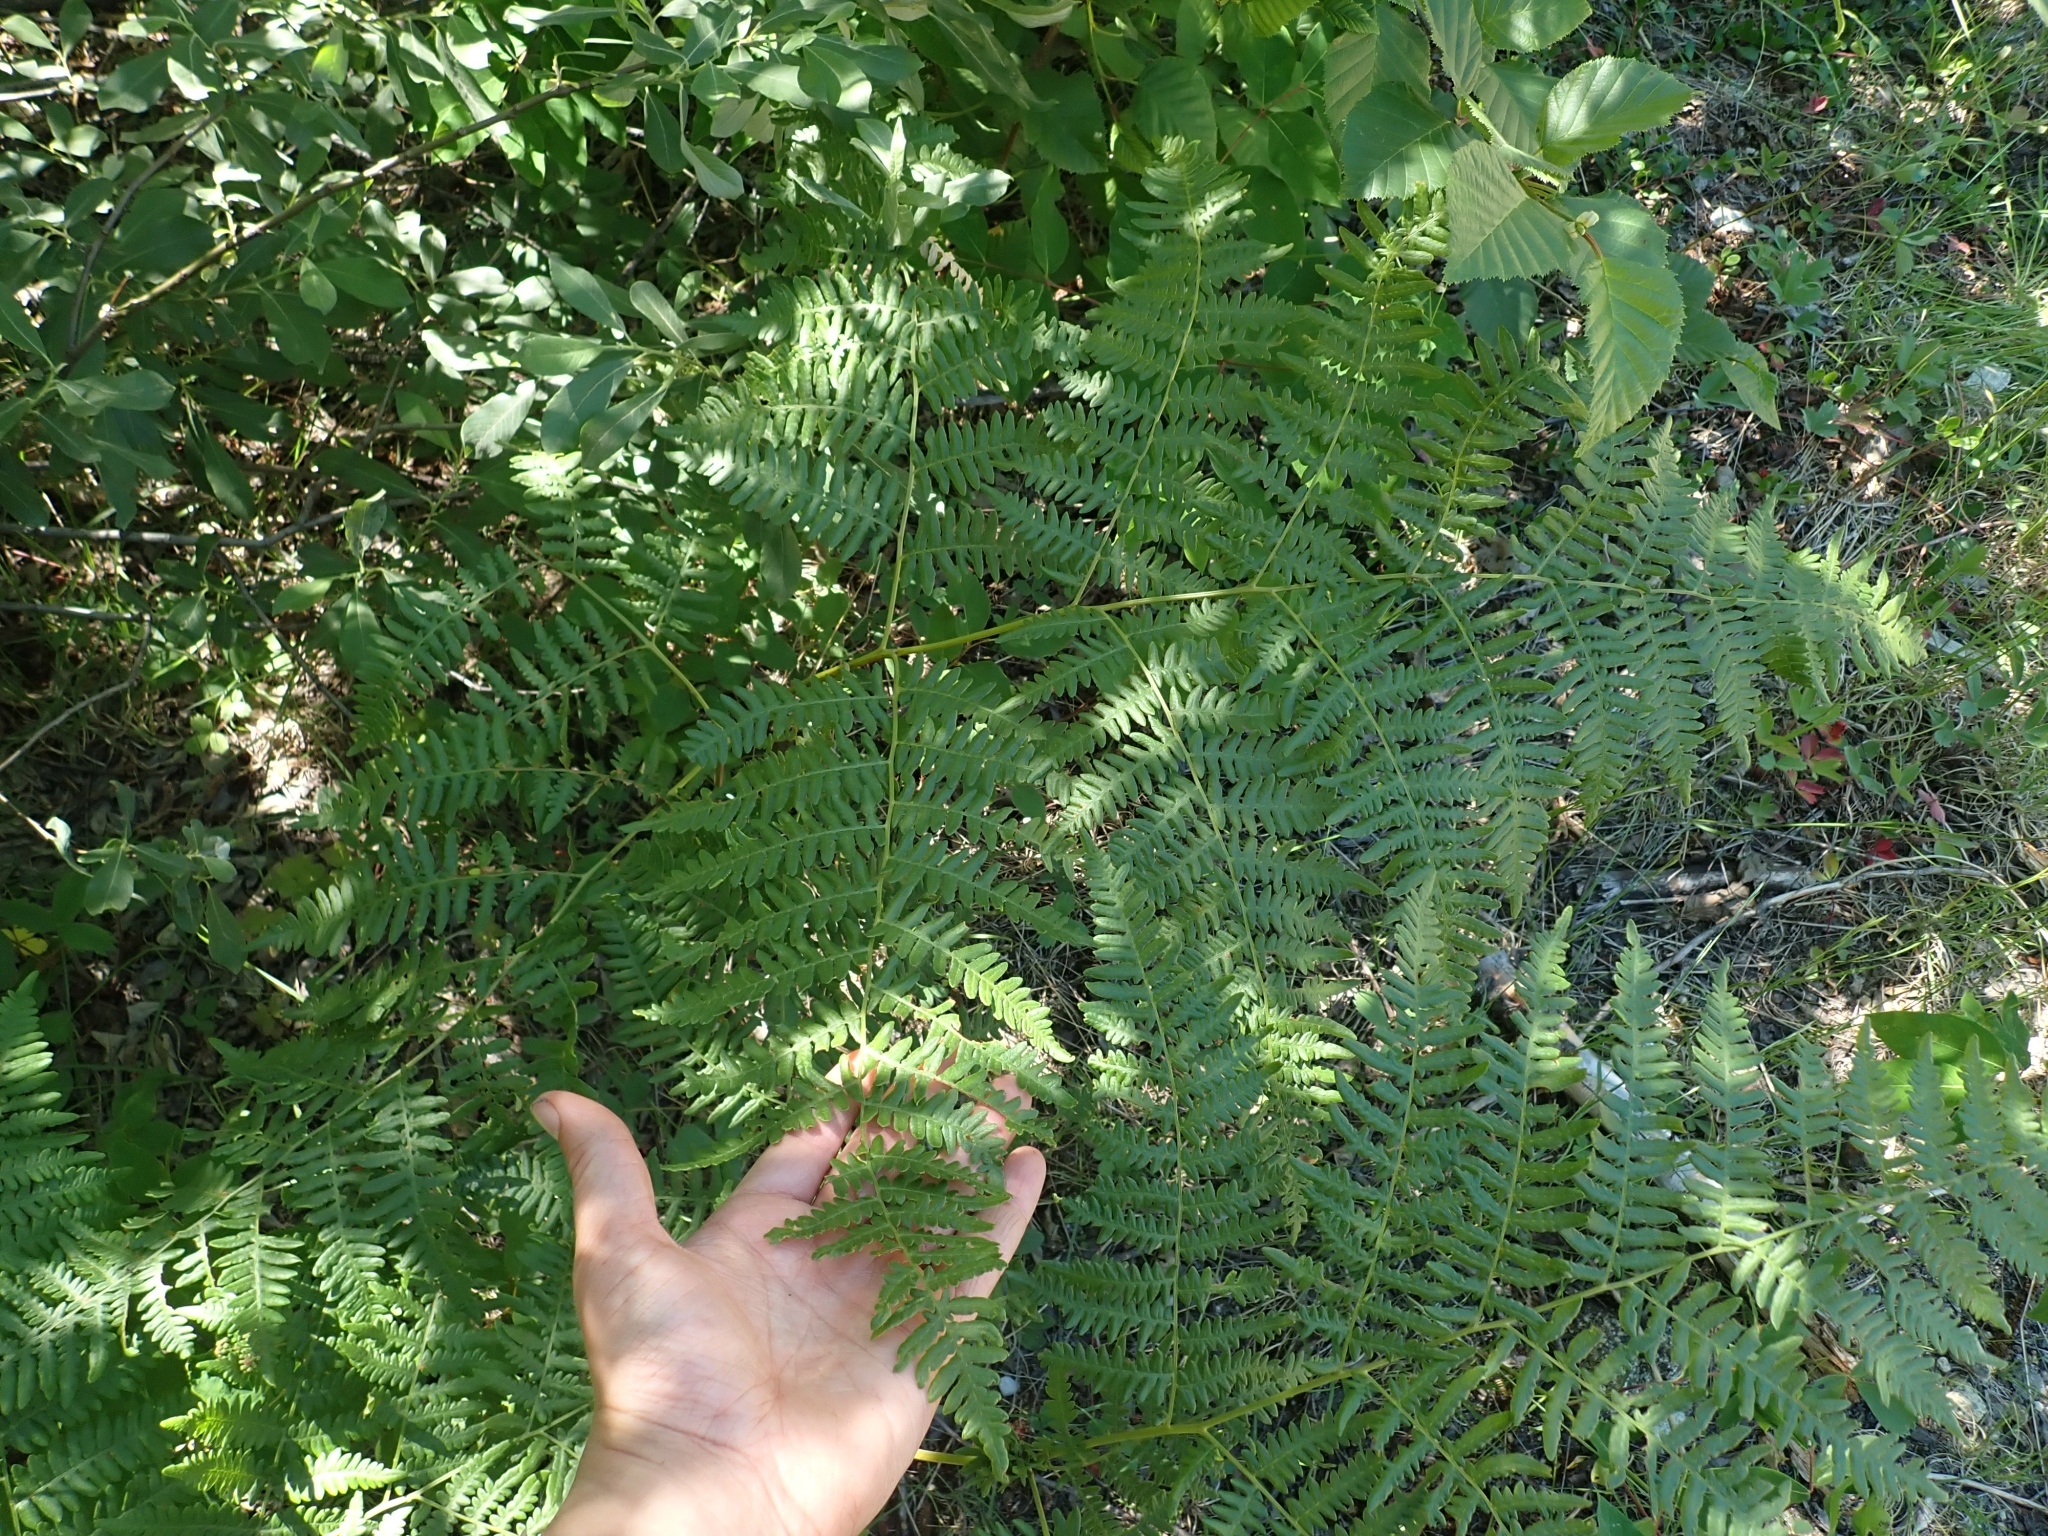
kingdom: Plantae
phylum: Tracheophyta
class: Polypodiopsida
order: Polypodiales
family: Dennstaedtiaceae
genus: Pteridium
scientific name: Pteridium aquilinum
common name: Bracken
